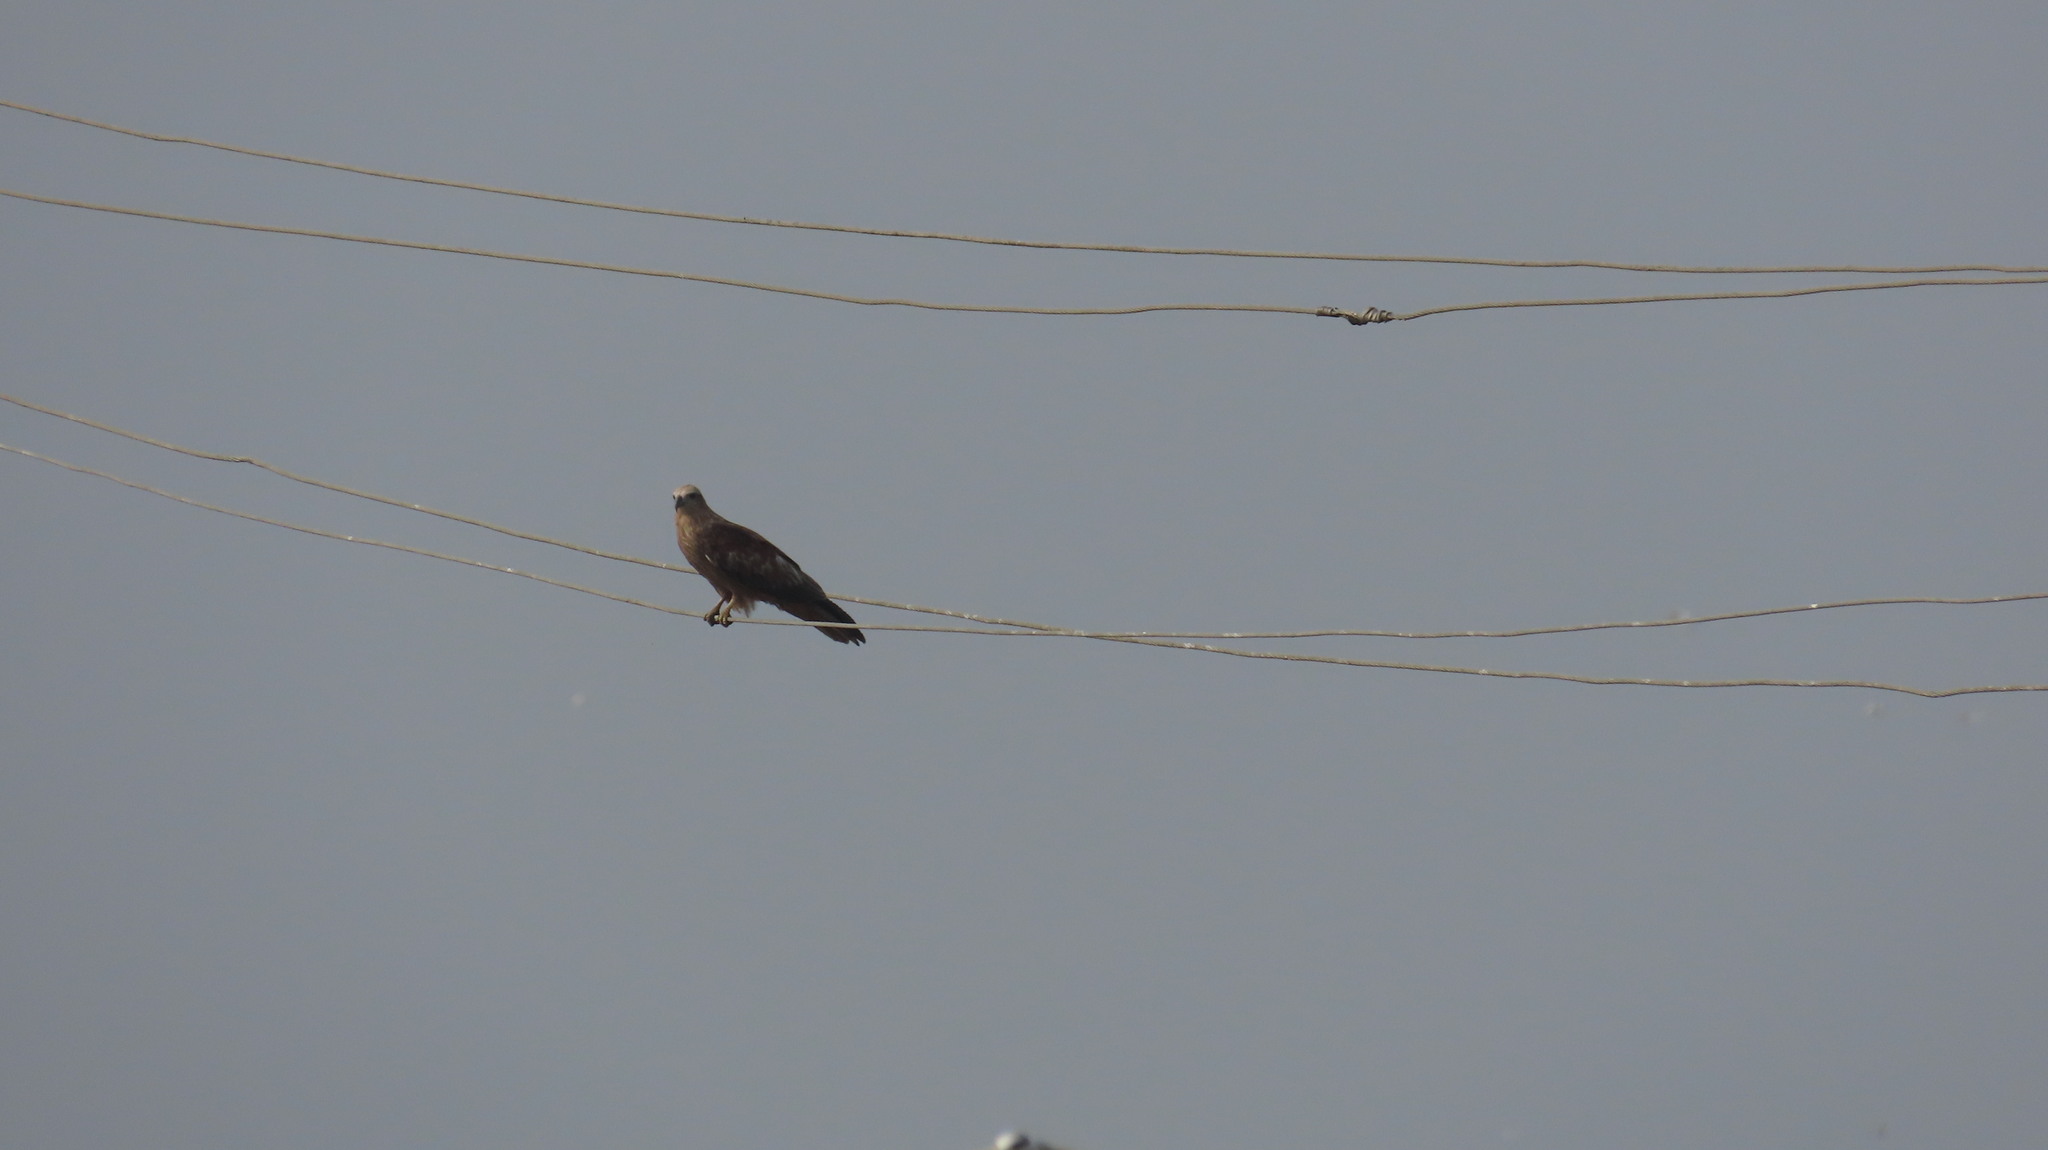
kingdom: Animalia
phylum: Chordata
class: Aves
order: Accipitriformes
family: Accipitridae
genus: Haliastur
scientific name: Haliastur indus
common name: Brahminy kite
